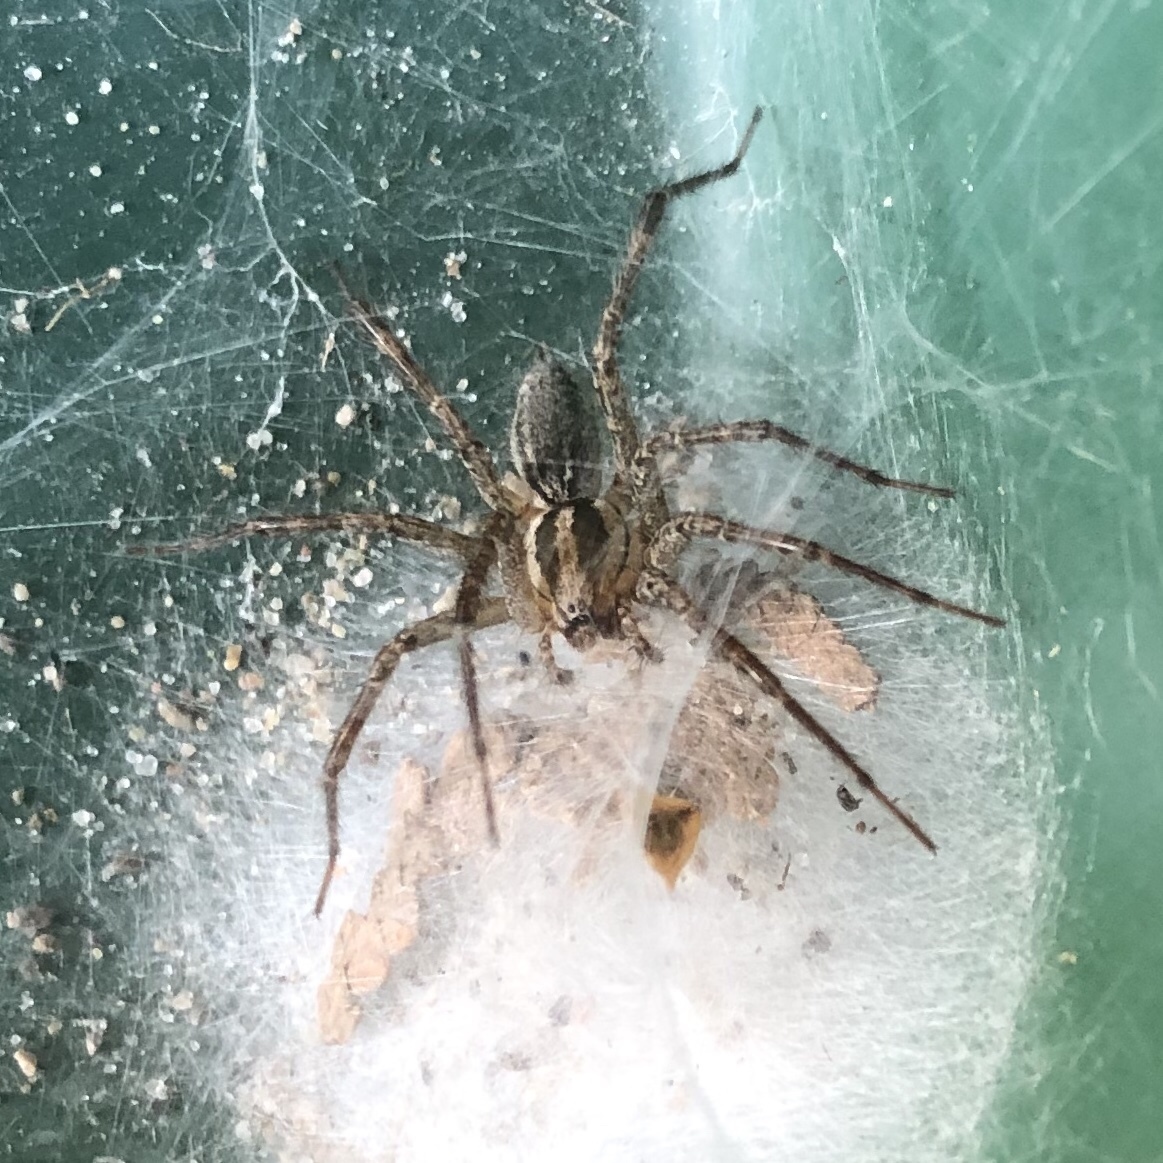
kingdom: Animalia
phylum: Arthropoda
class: Arachnida
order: Araneae
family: Agelenidae
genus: Agelenopsis
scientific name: Agelenopsis
